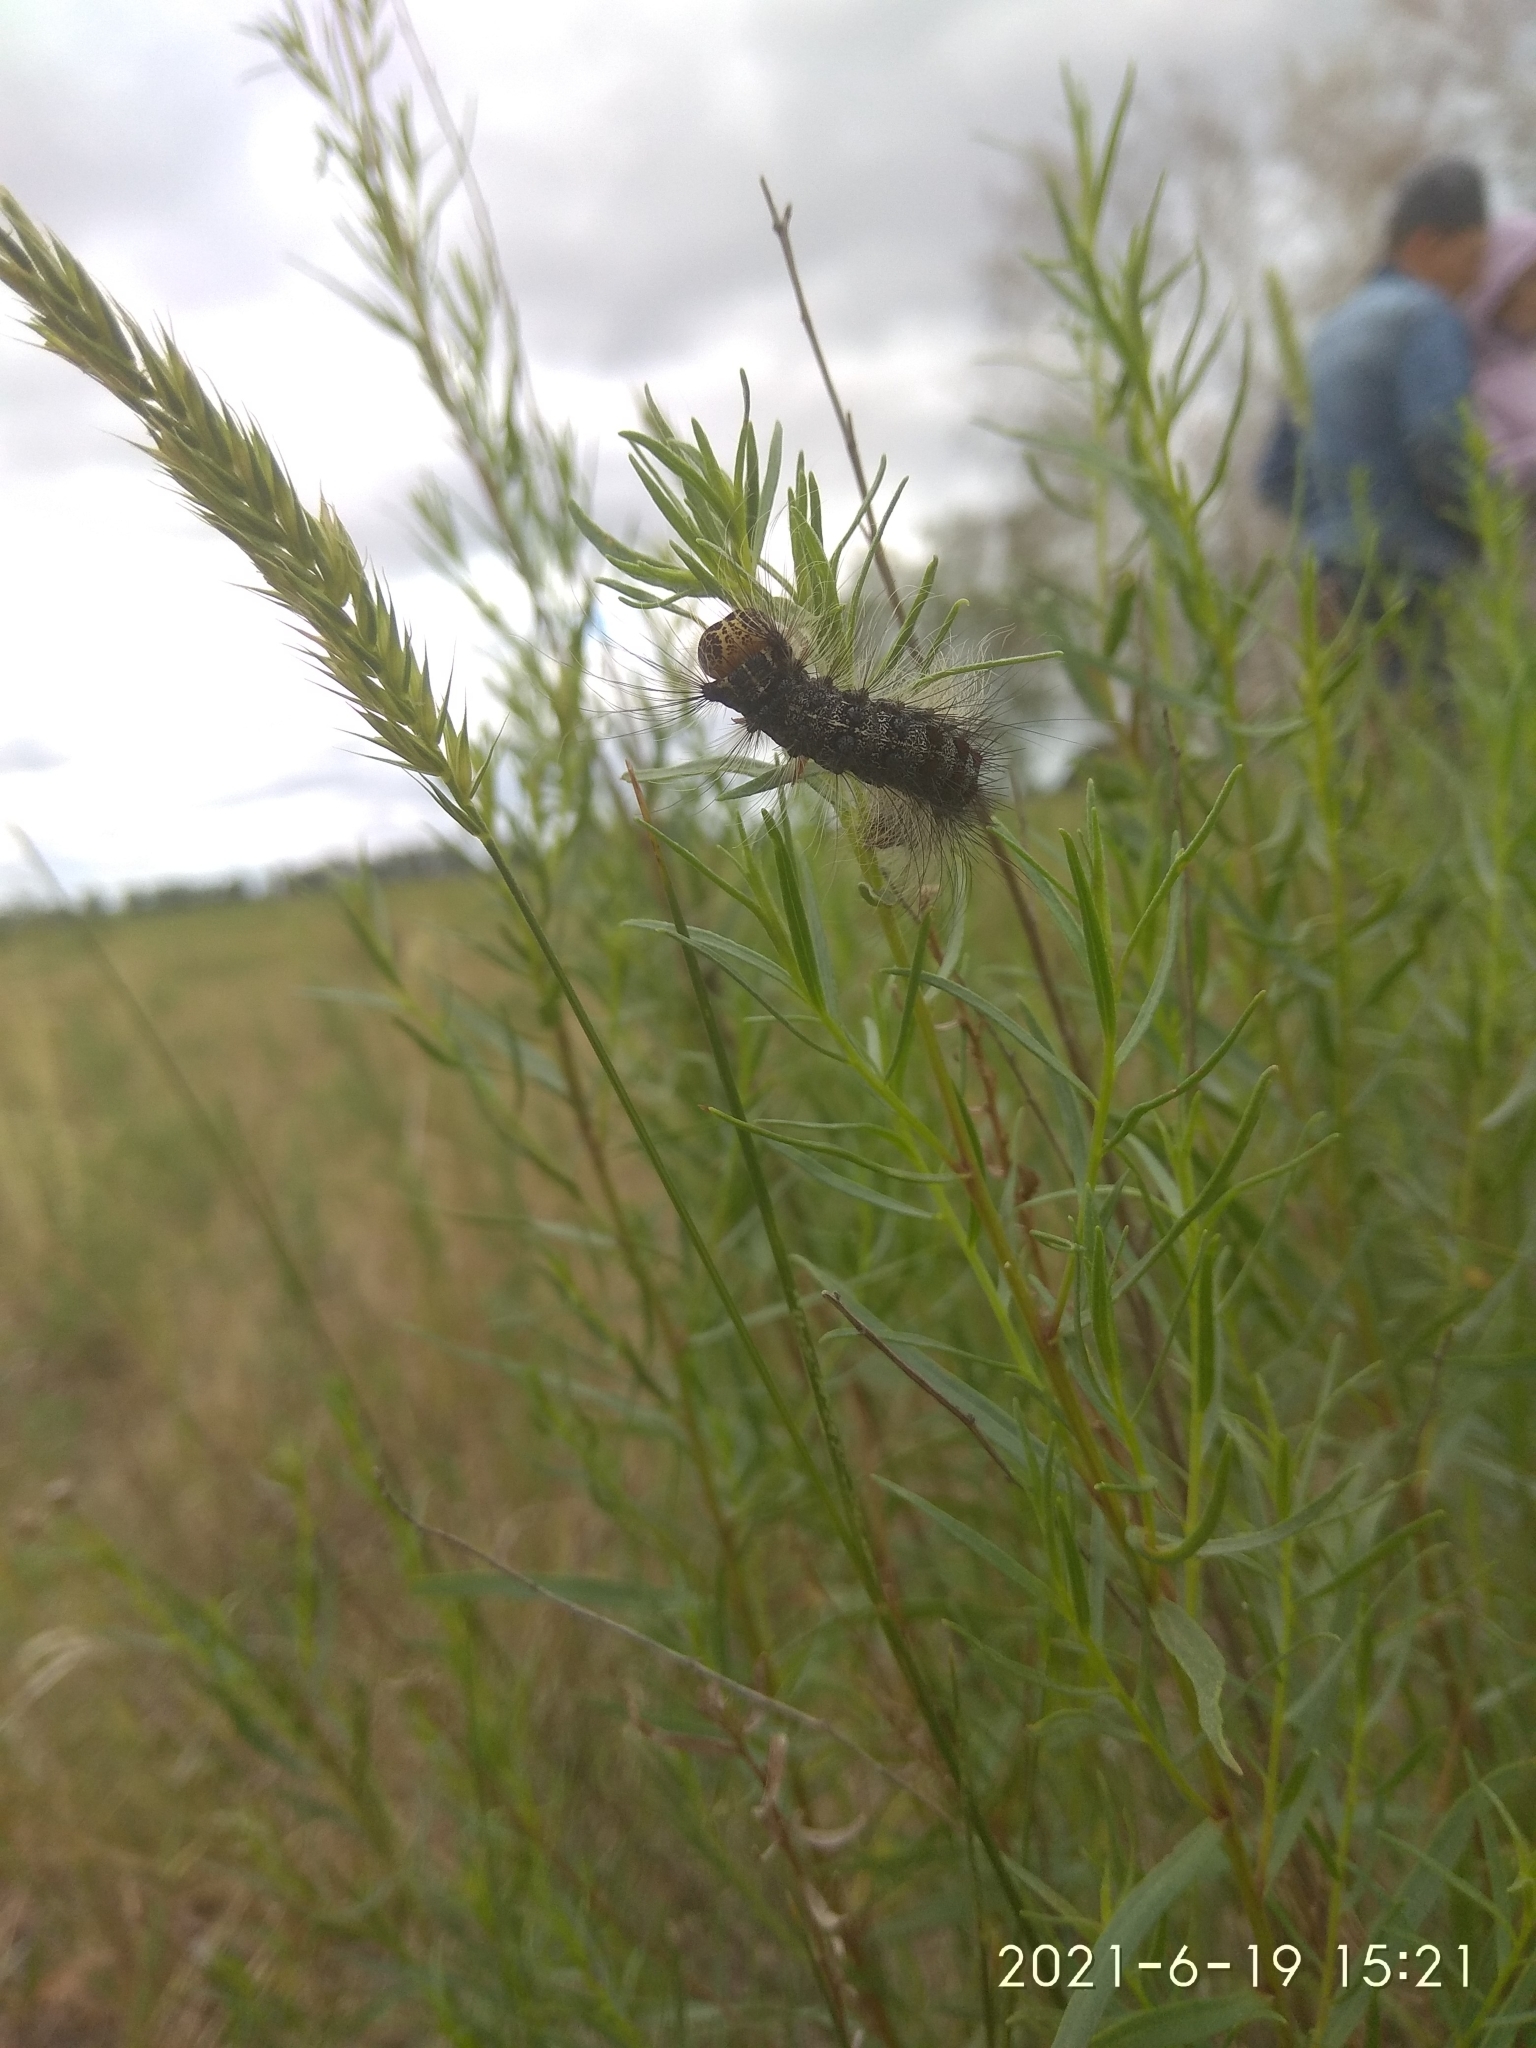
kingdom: Animalia
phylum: Arthropoda
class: Insecta
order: Lepidoptera
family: Erebidae
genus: Lymantria
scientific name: Lymantria dispar
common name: Gypsy moth
